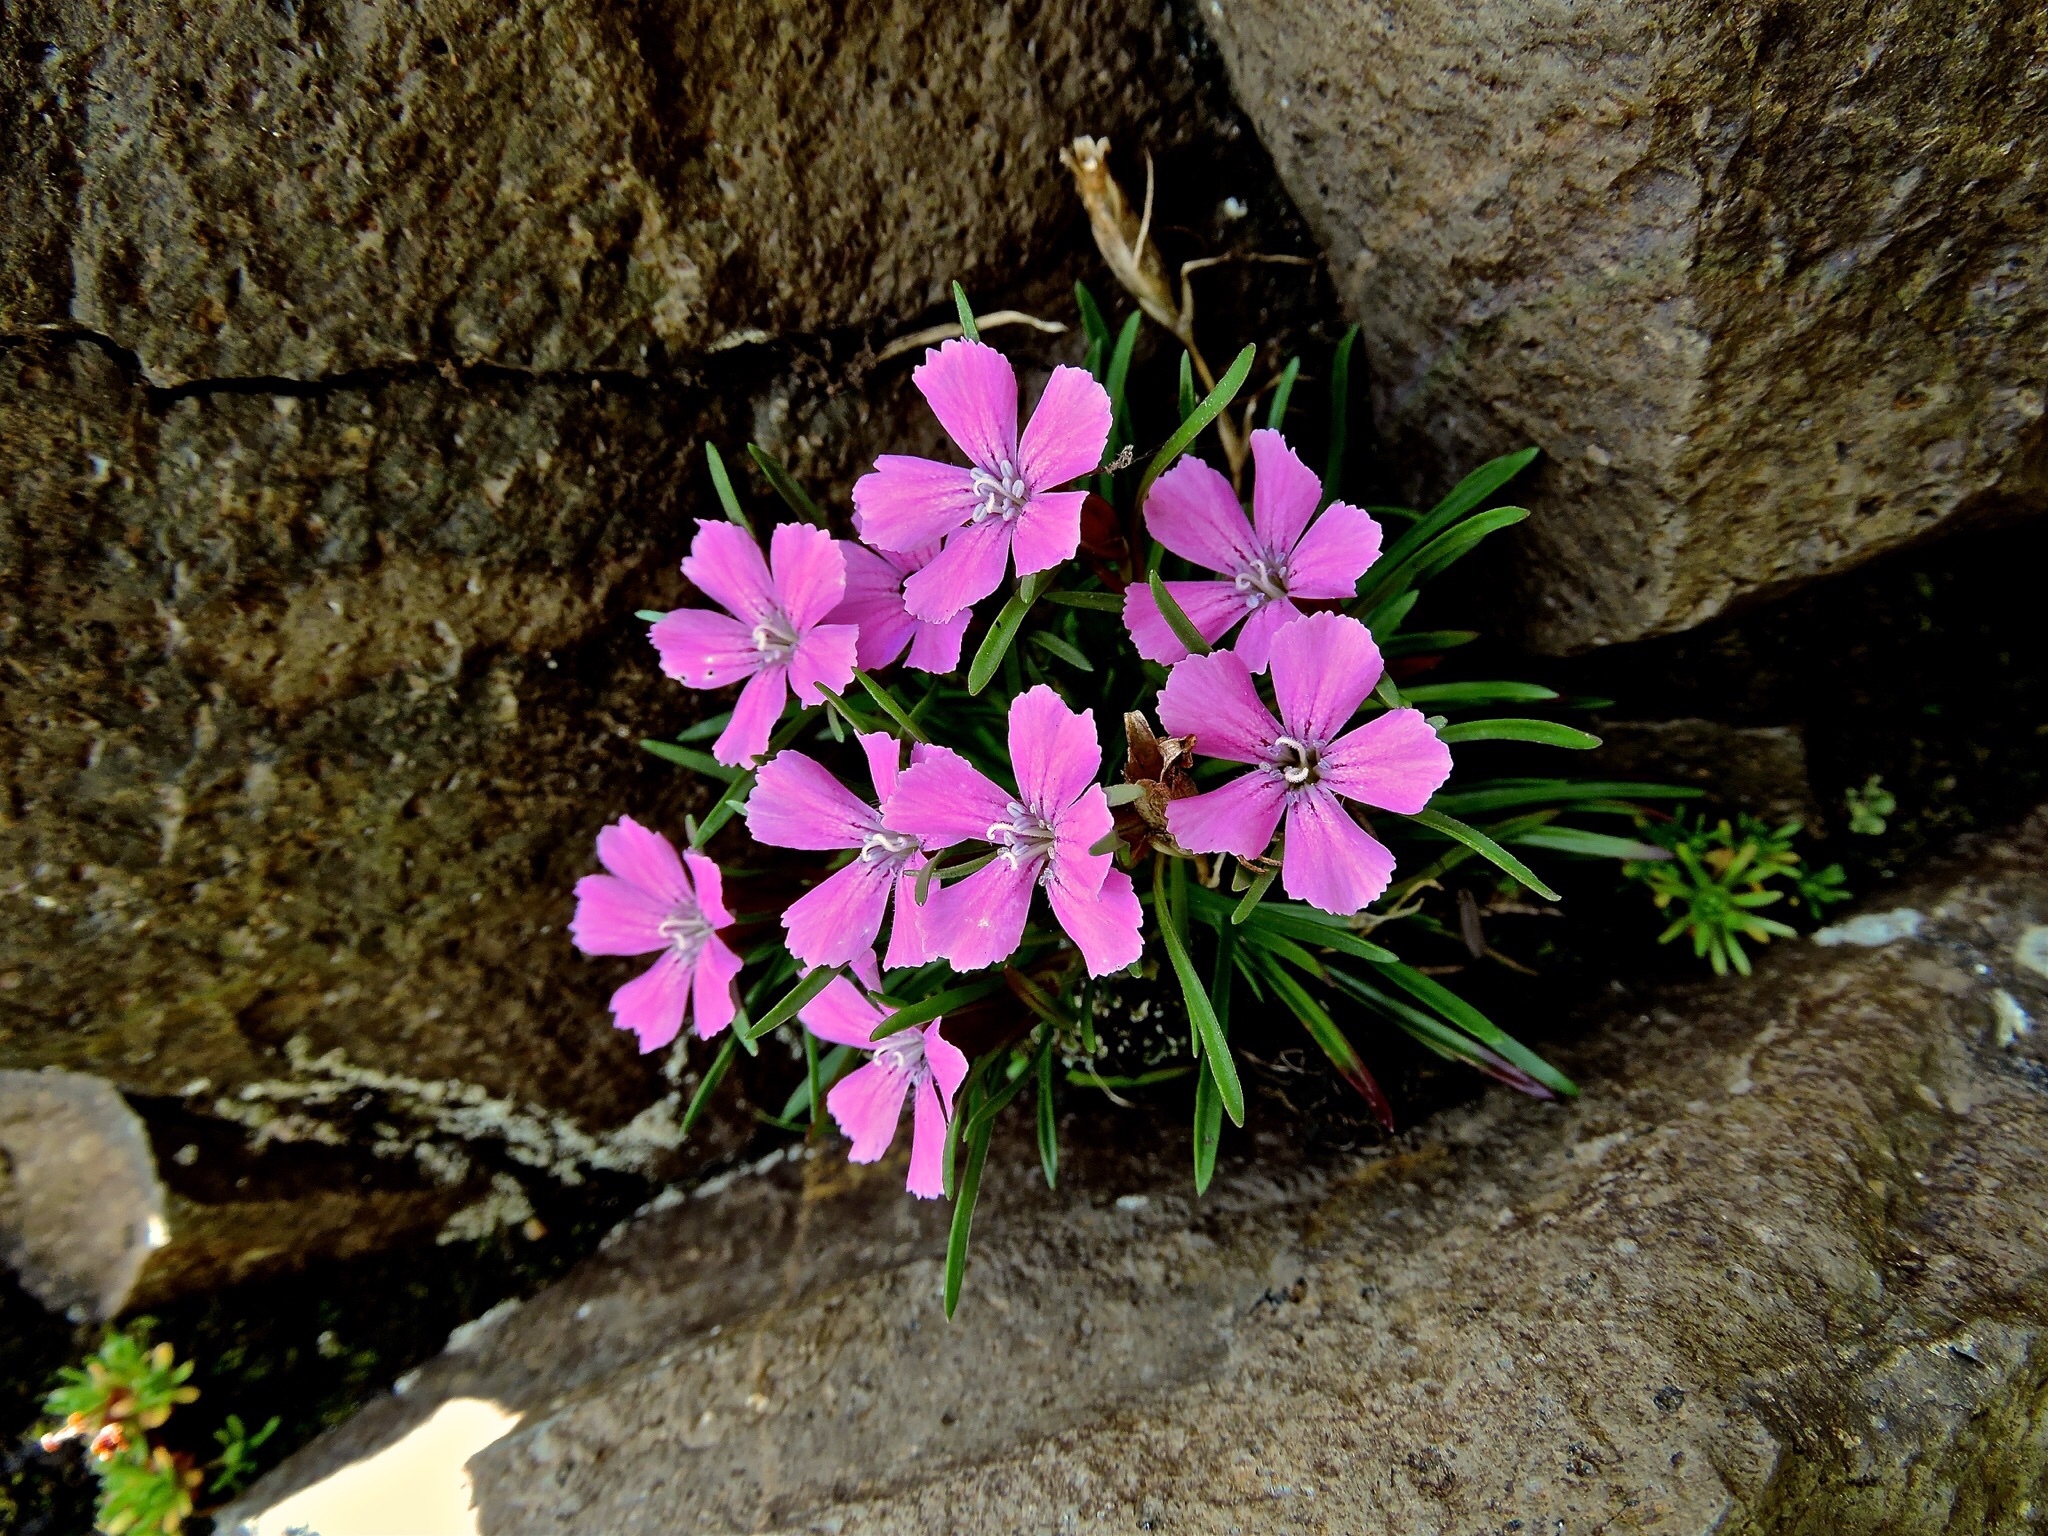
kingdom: Plantae
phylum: Tracheophyta
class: Magnoliopsida
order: Caryophyllales
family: Caryophyllaceae
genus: Dianthus
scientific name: Dianthus glacialis
